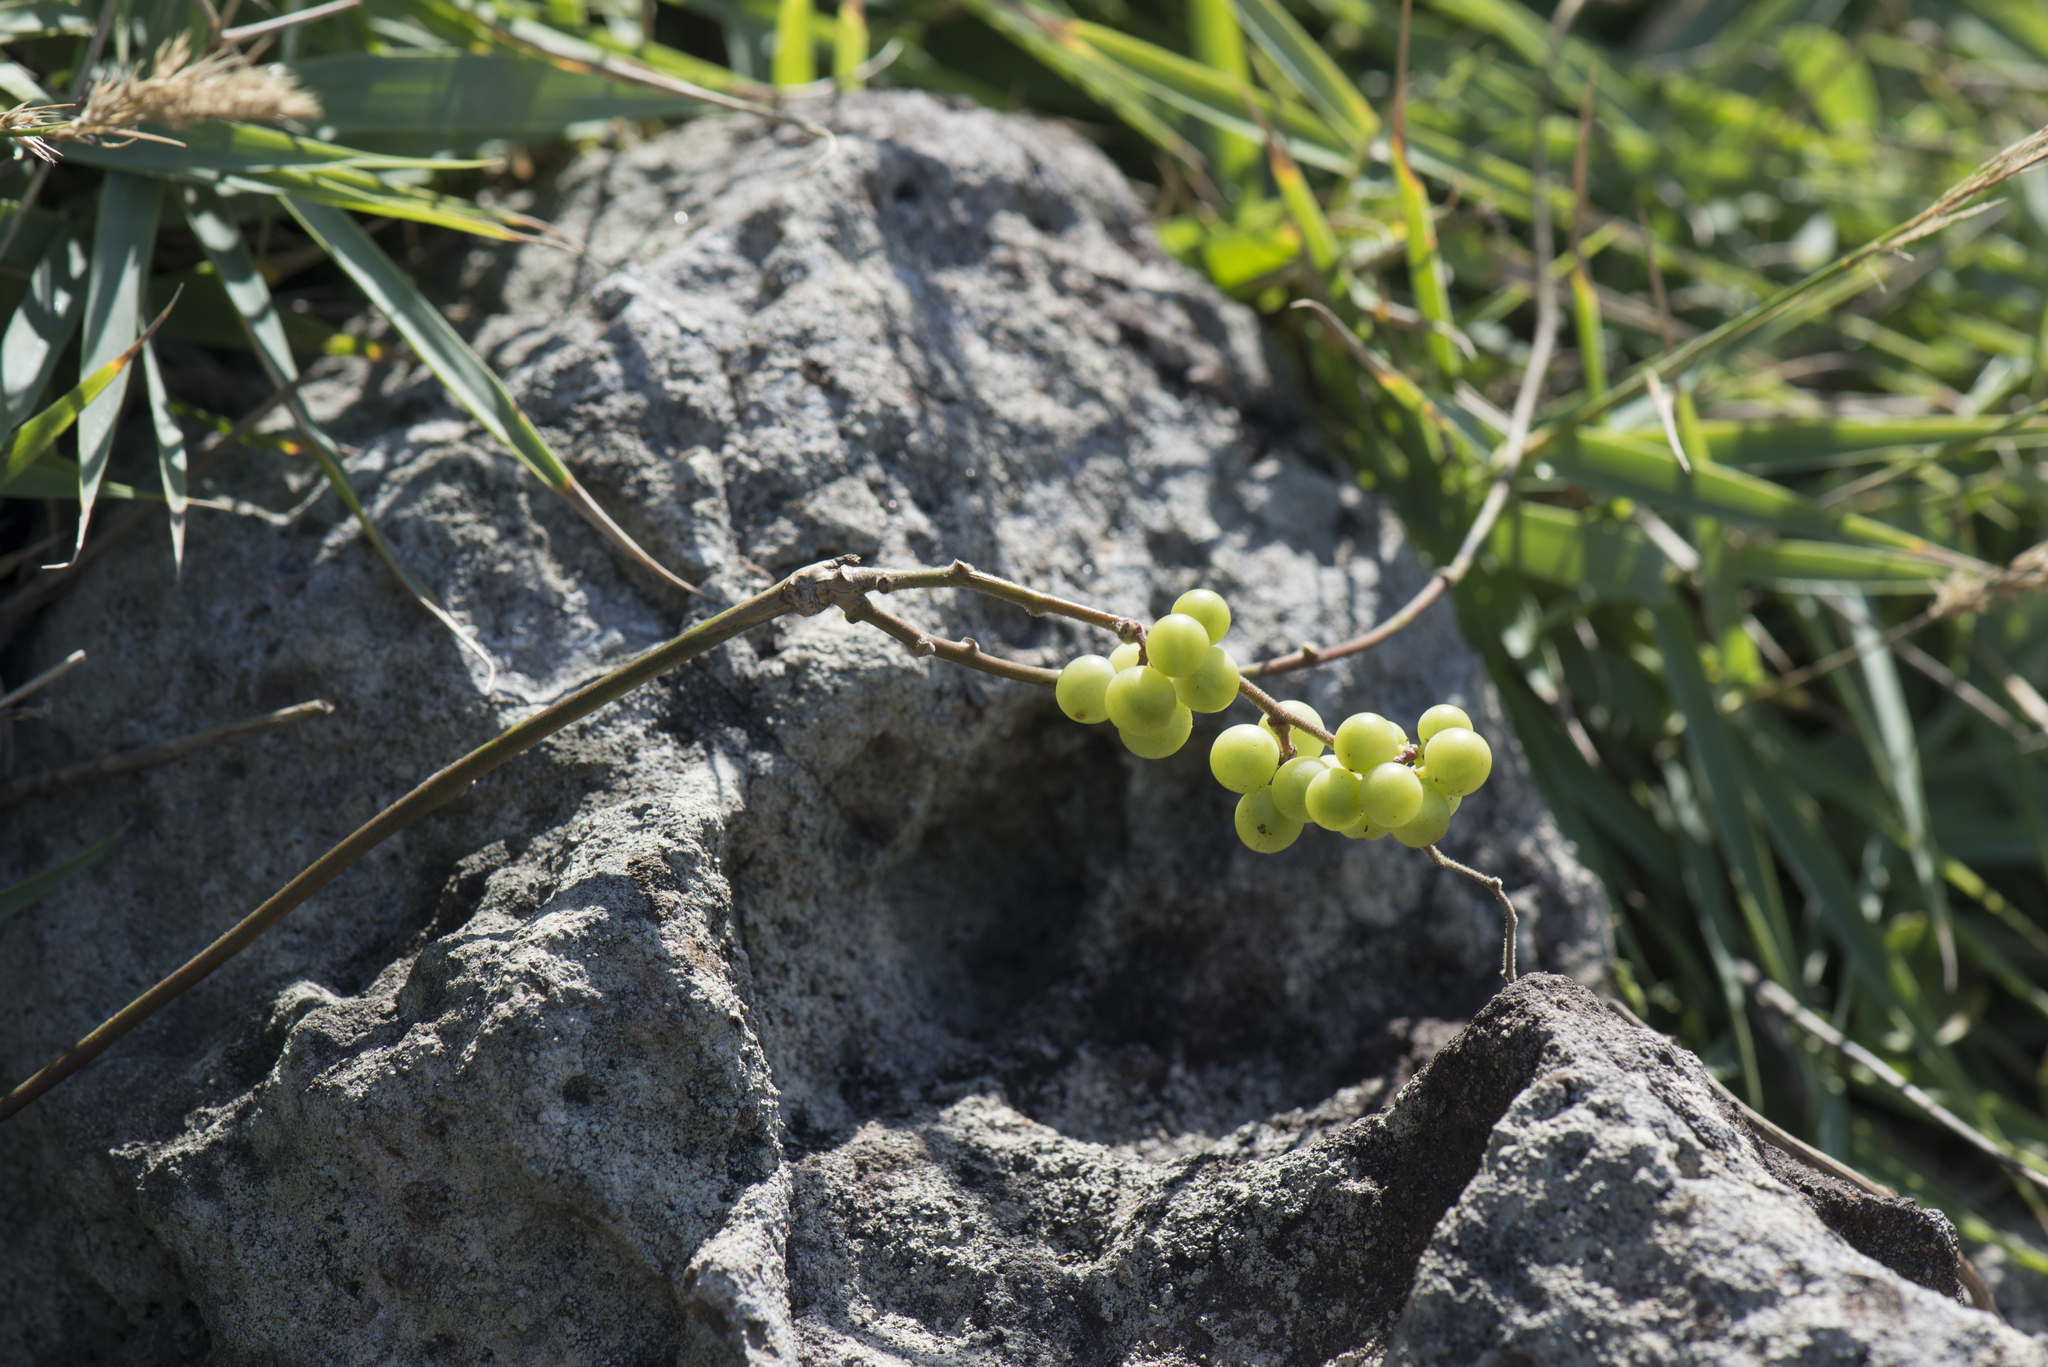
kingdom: Plantae
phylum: Tracheophyta
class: Magnoliopsida
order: Ranunculales
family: Menispermaceae
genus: Cocculus
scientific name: Cocculus orbiculatus
